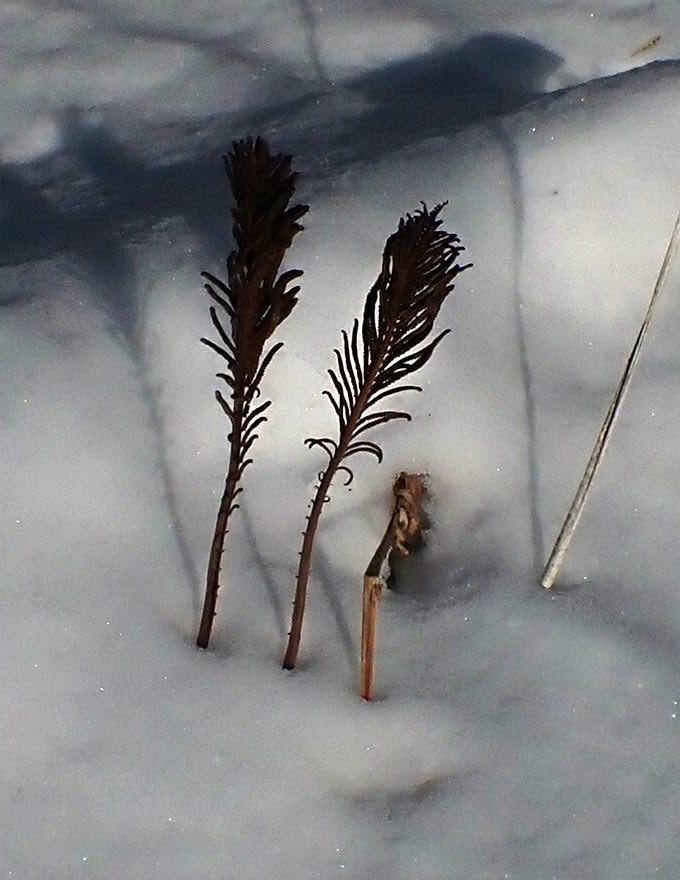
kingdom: Plantae
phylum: Tracheophyta
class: Polypodiopsida
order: Polypodiales
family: Onocleaceae
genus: Matteuccia
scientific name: Matteuccia struthiopteris
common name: Ostrich fern
